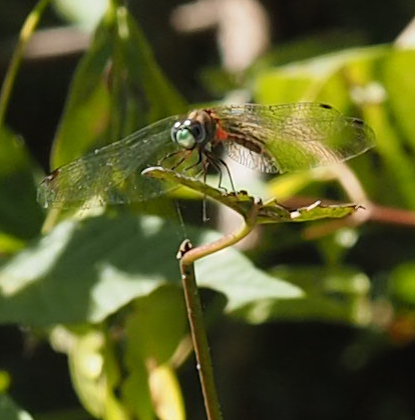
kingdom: Animalia
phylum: Arthropoda
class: Insecta
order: Odonata
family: Libellulidae
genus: Sympetrum
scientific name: Sympetrum ambiguum
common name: Blue-faced meadowhawk
